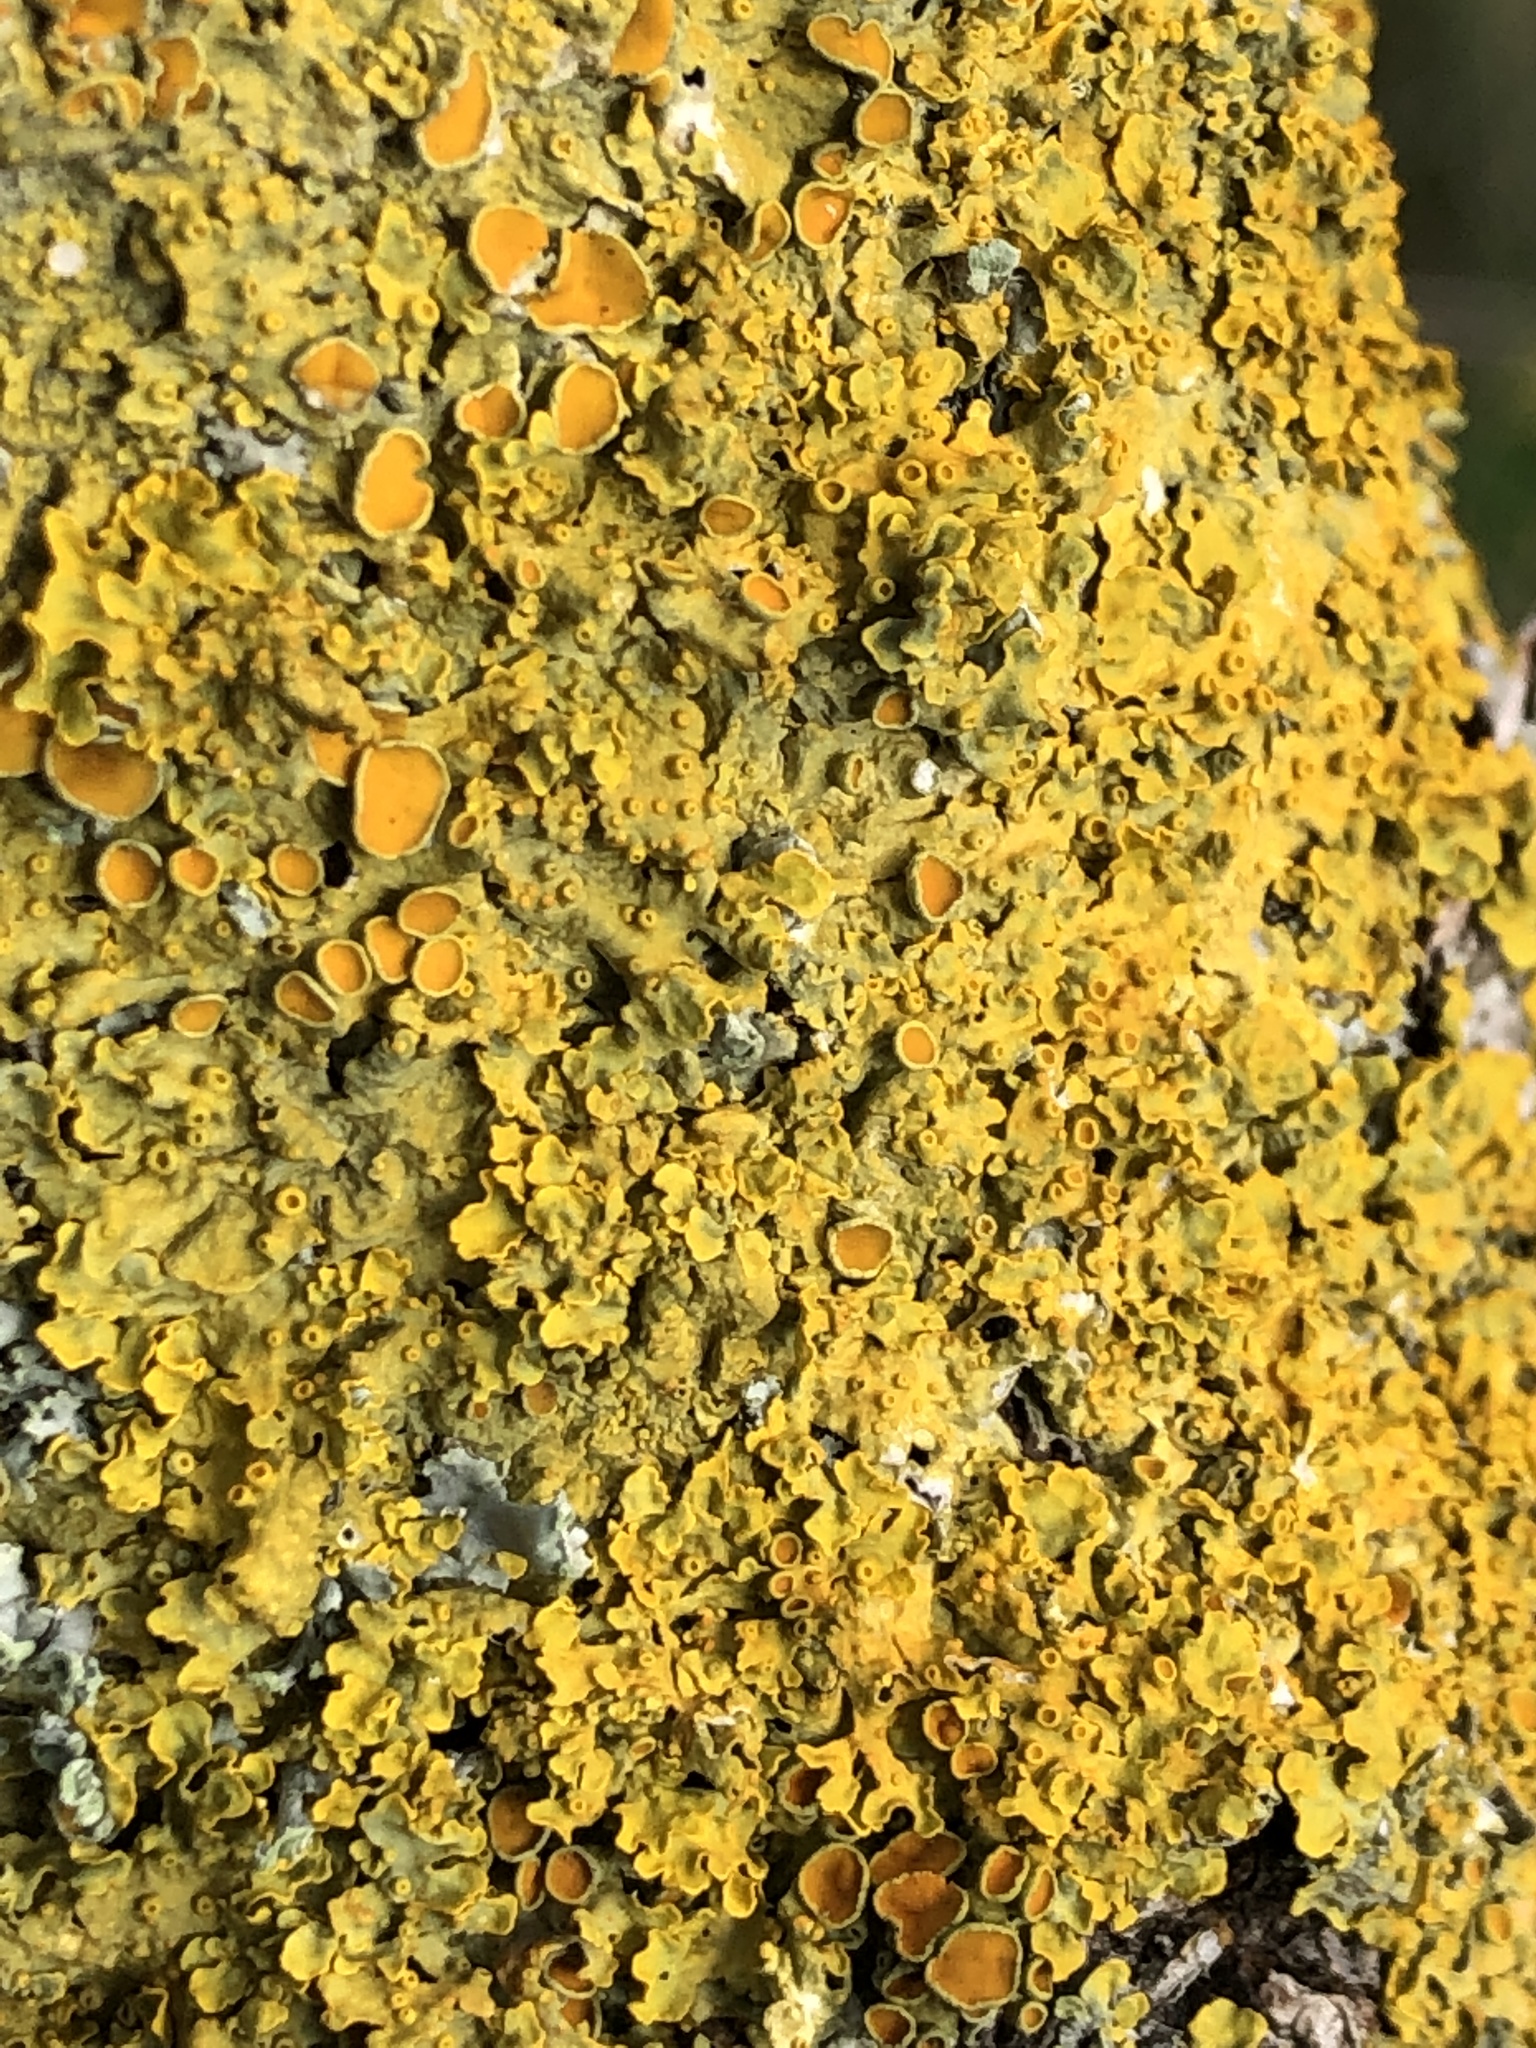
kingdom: Fungi
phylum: Ascomycota
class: Lecanoromycetes
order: Teloschistales
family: Teloschistaceae
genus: Xanthoria
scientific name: Xanthoria parietina
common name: Common orange lichen
